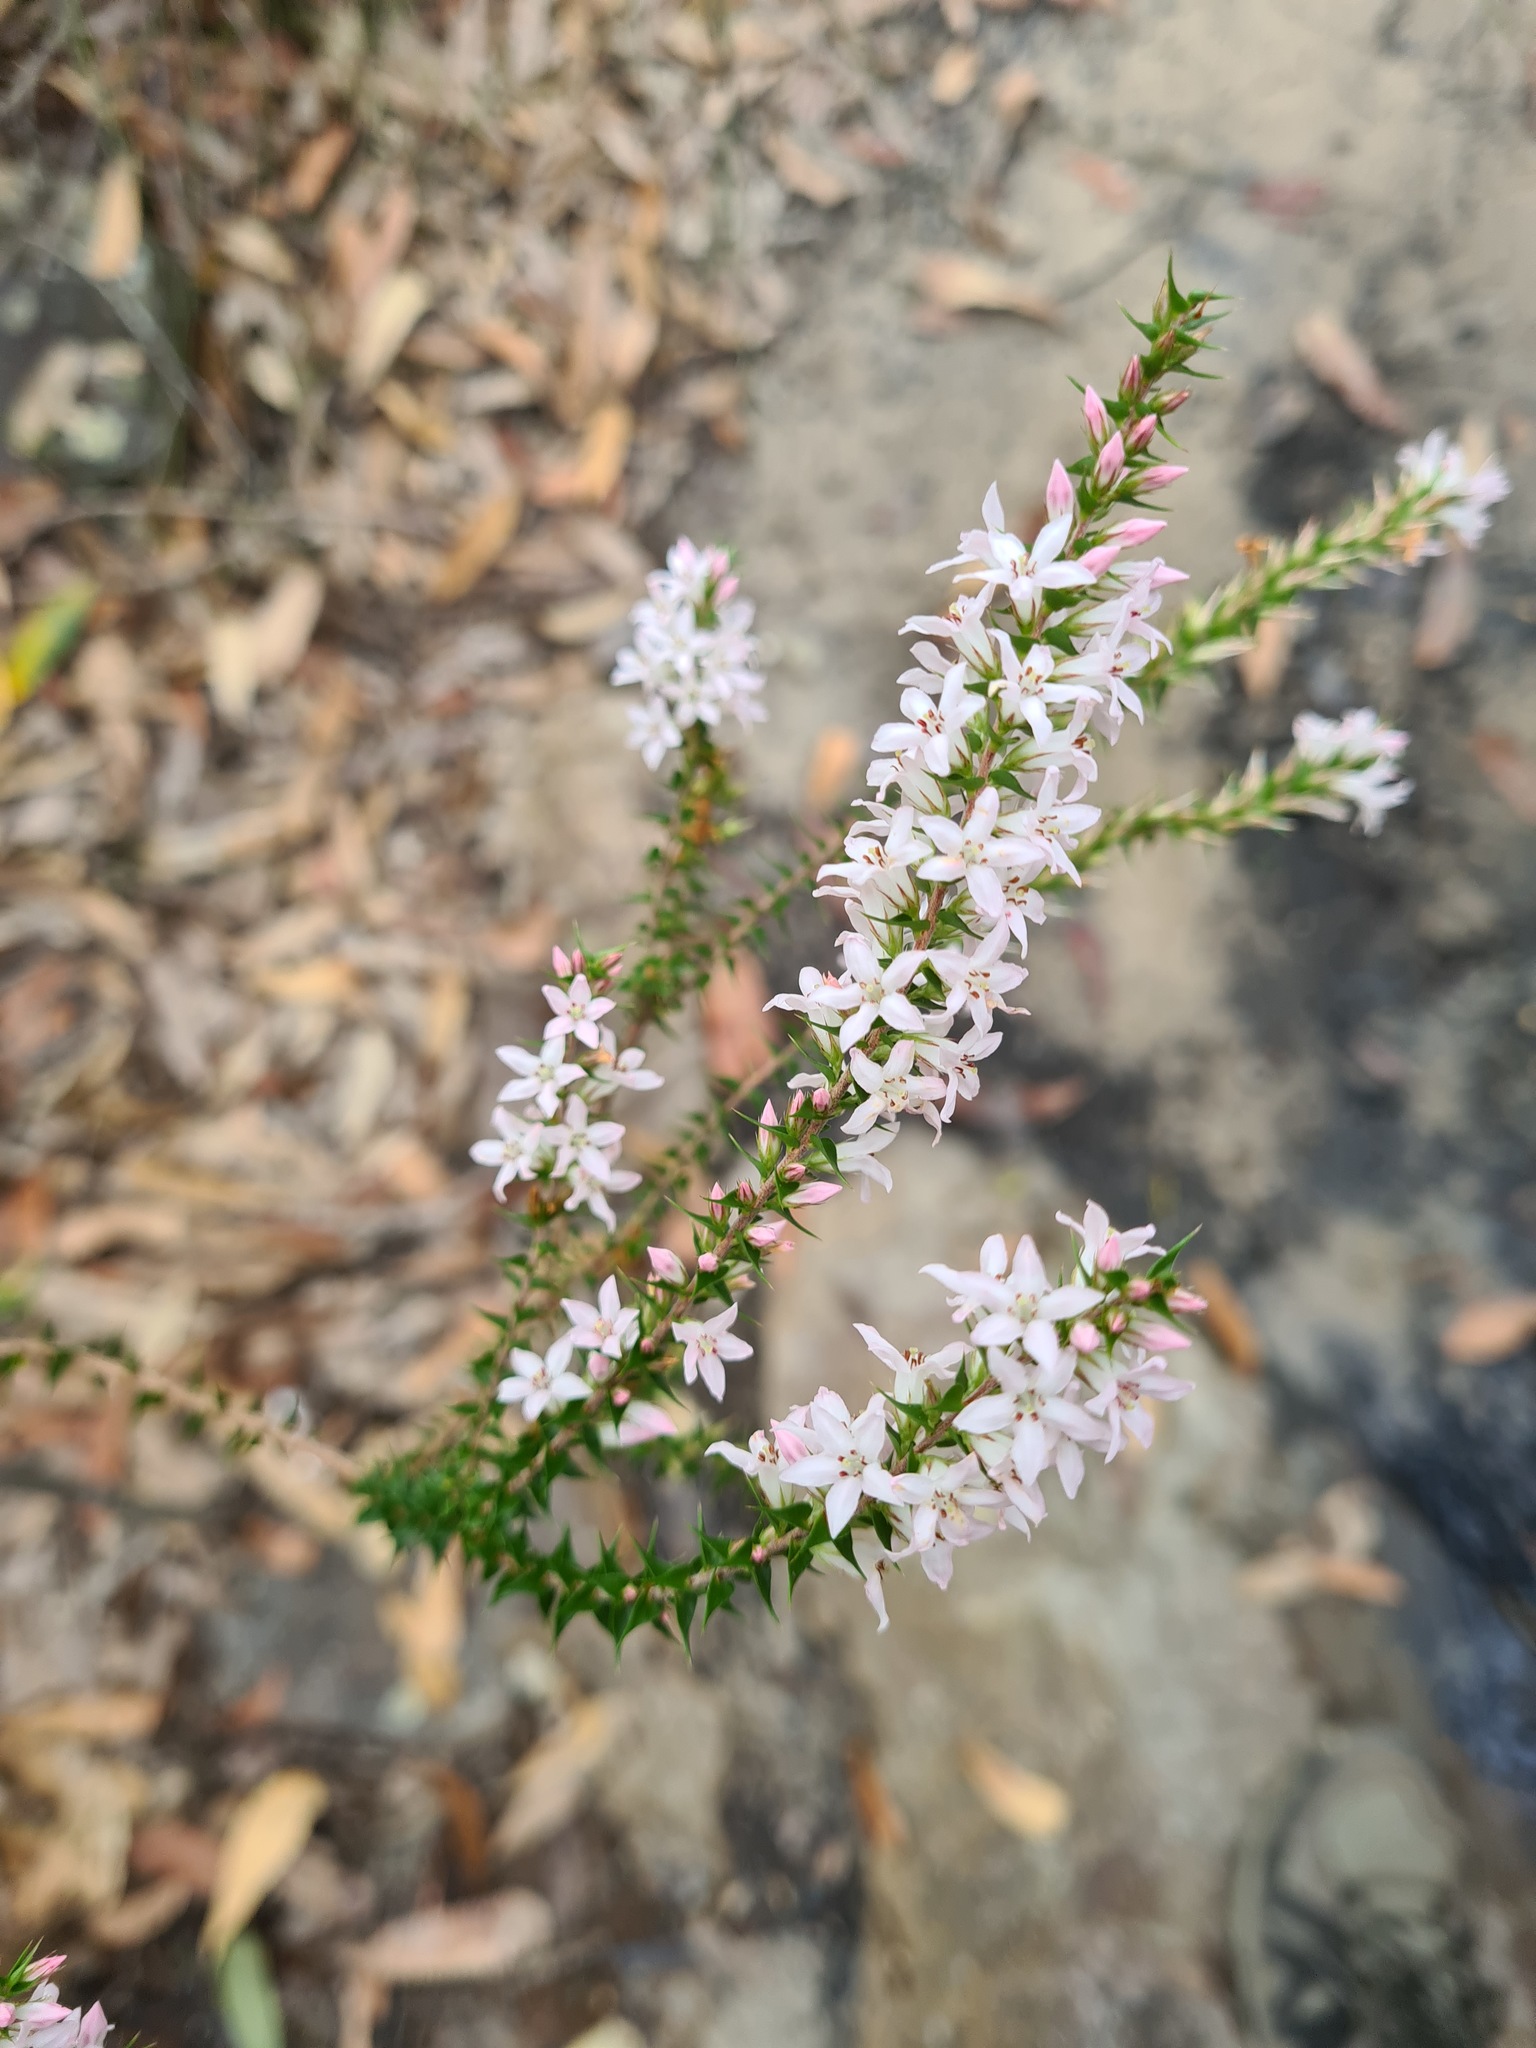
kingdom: Plantae
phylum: Tracheophyta
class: Magnoliopsida
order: Ericales
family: Ericaceae
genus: Epacris
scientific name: Epacris pulchella
